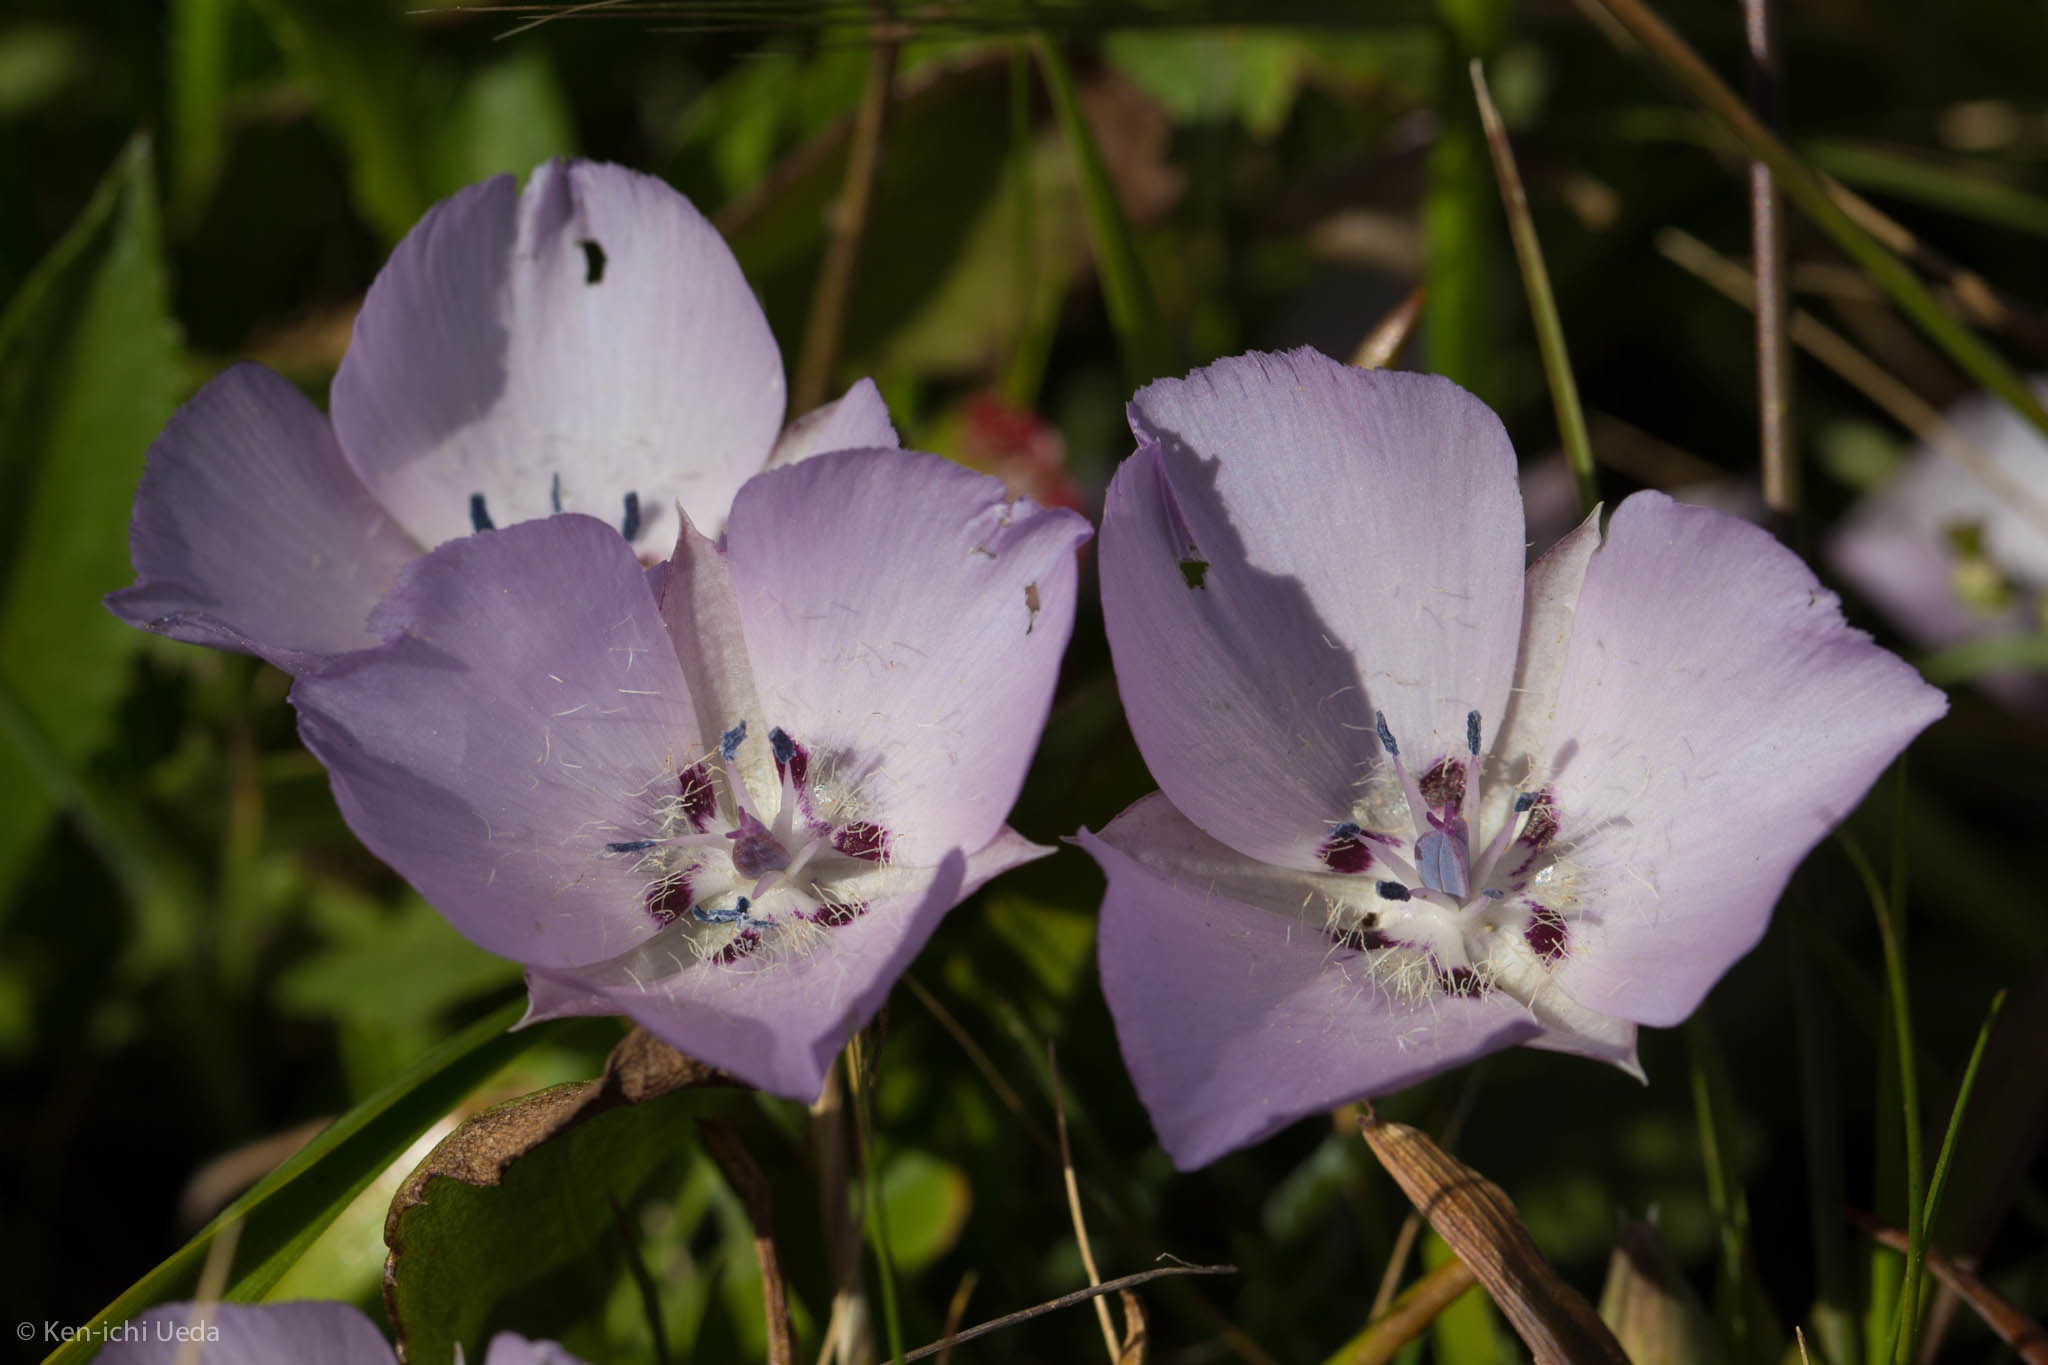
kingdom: Plantae
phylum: Tracheophyta
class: Liliopsida
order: Liliales
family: Liliaceae
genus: Calochortus
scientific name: Calochortus uniflorus
